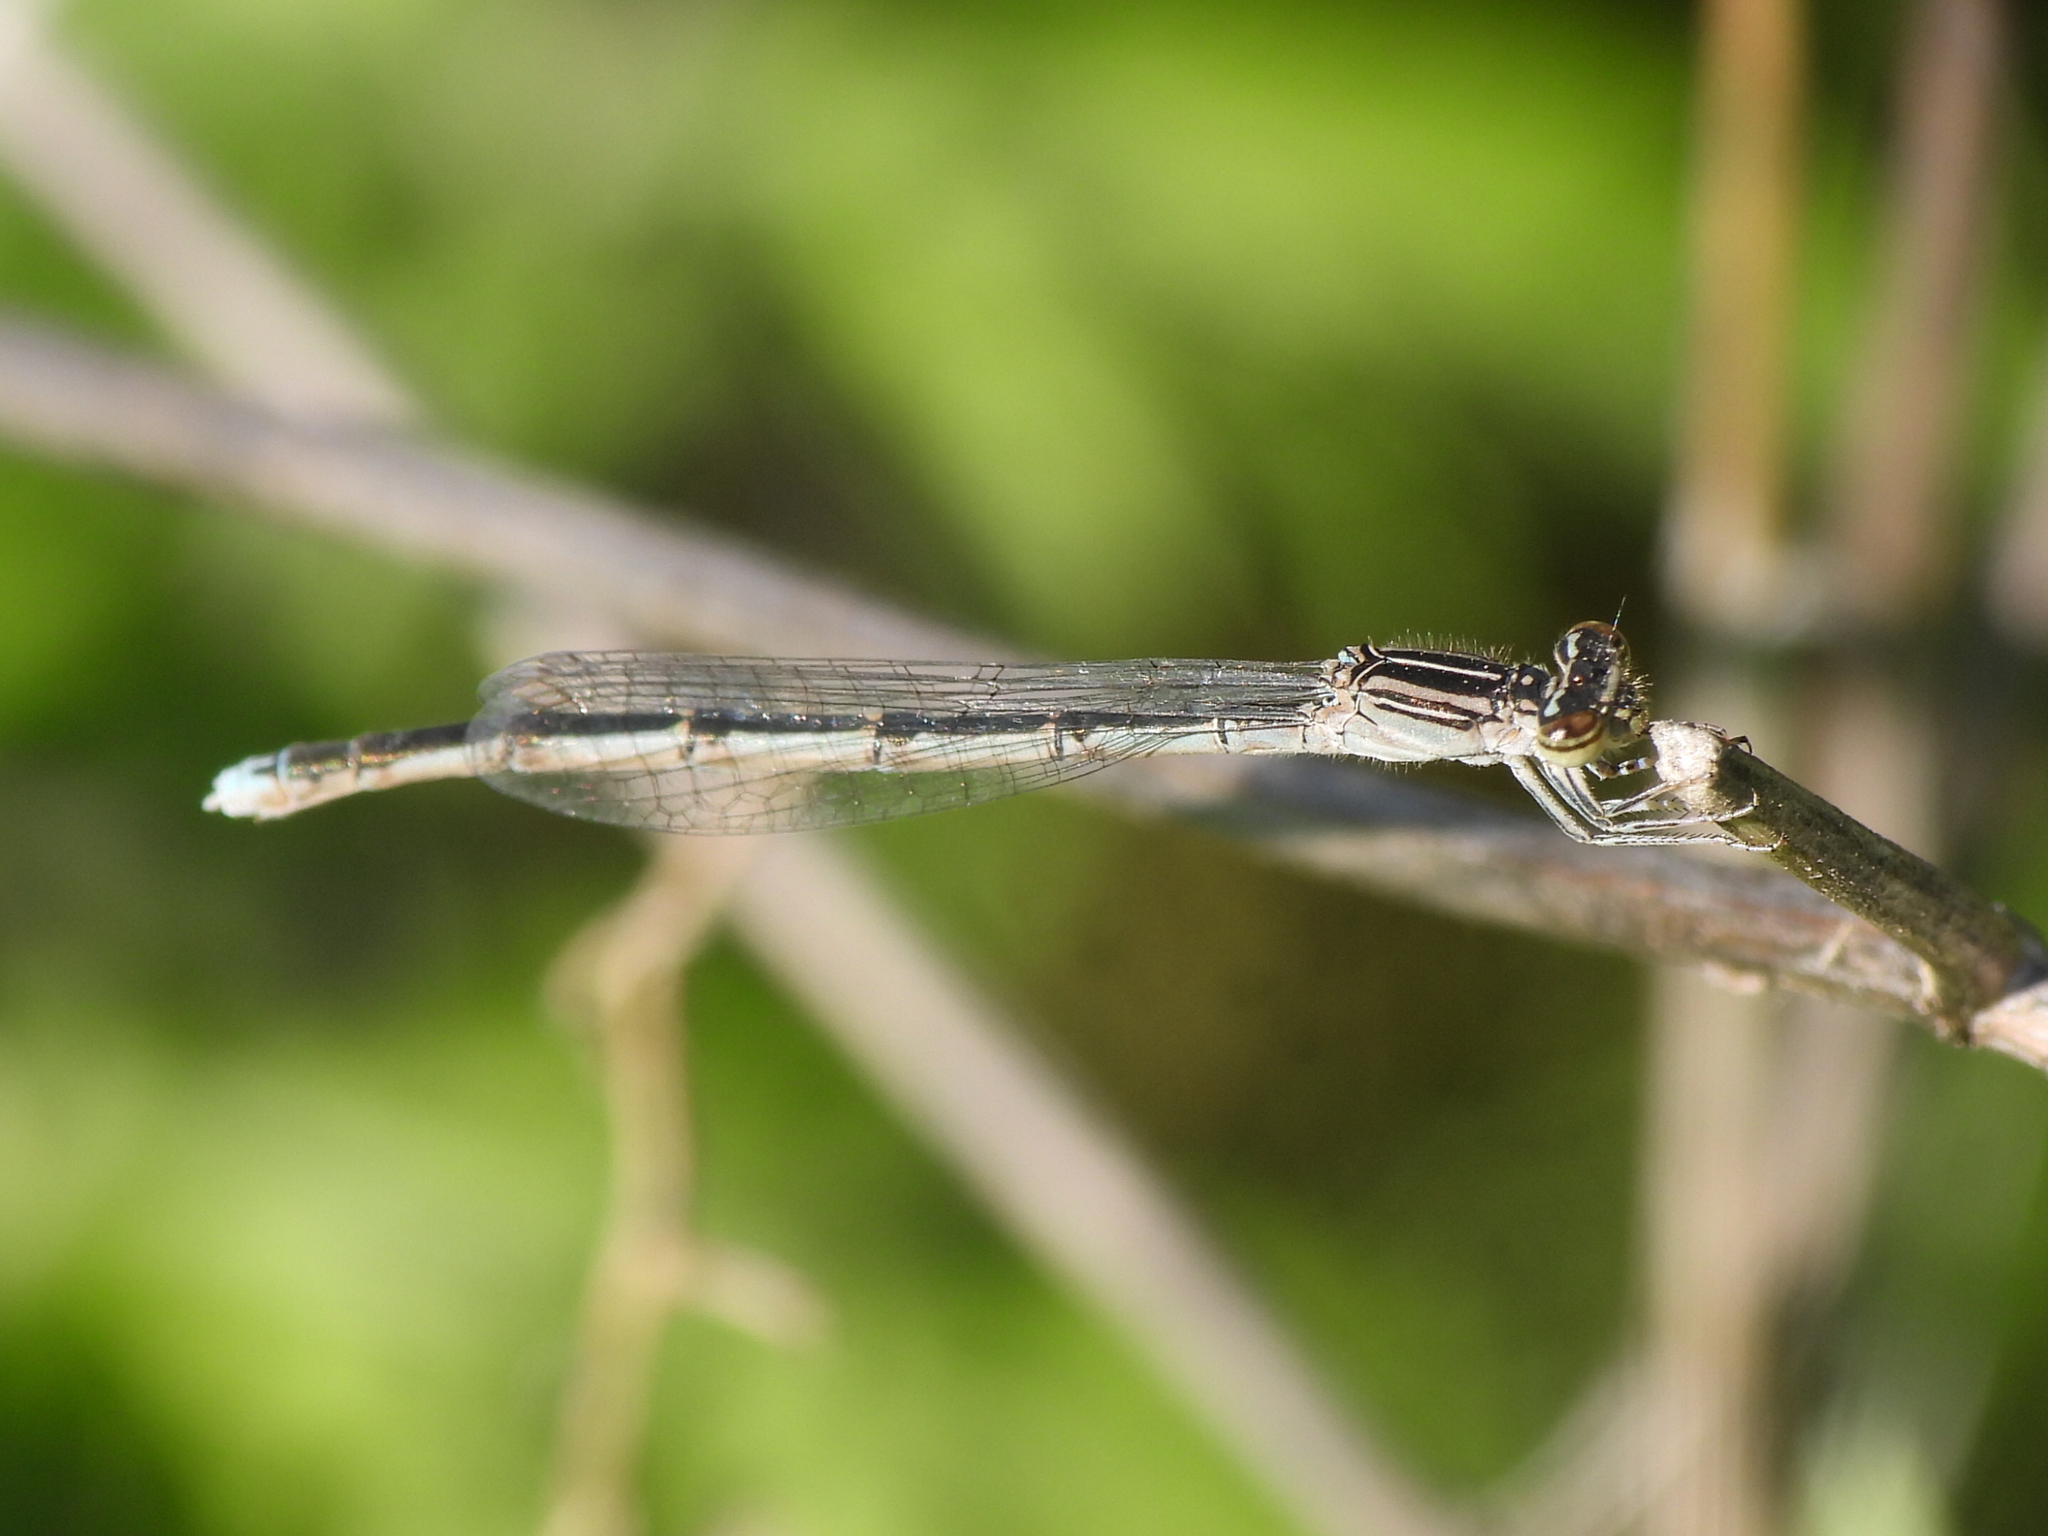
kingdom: Animalia
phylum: Arthropoda
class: Insecta
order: Odonata
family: Coenagrionidae
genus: Enallagma
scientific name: Enallagma basidens
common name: Double-striped bluet
